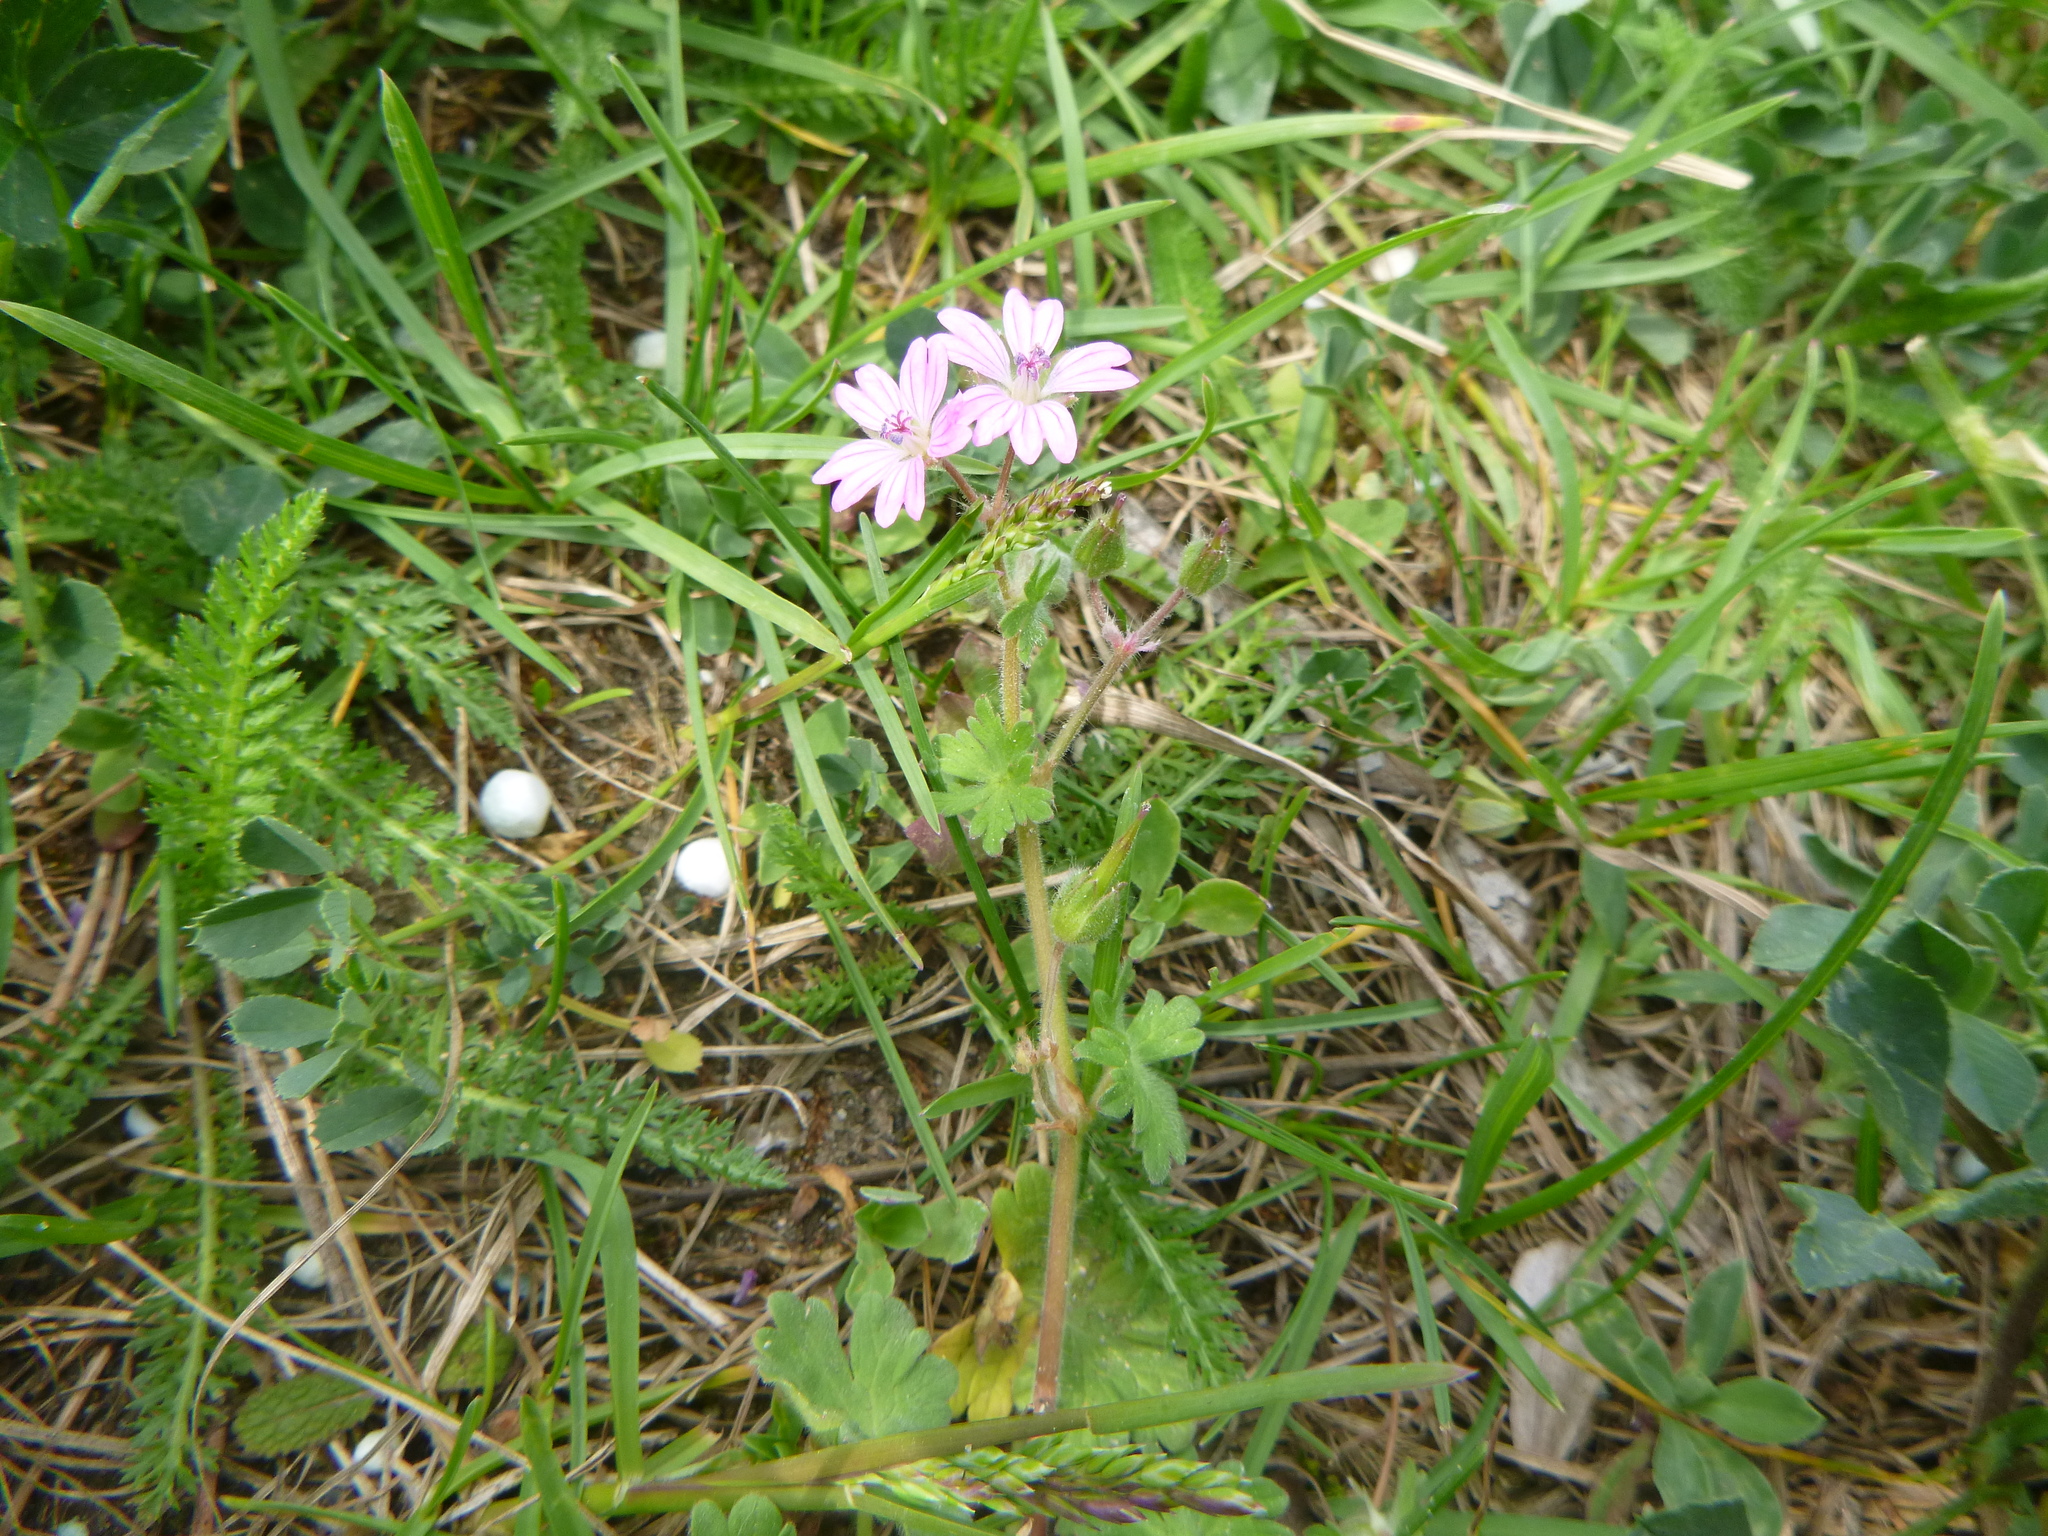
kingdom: Plantae
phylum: Tracheophyta
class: Magnoliopsida
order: Geraniales
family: Geraniaceae
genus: Geranium
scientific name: Geranium molle
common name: Dove's-foot crane's-bill
